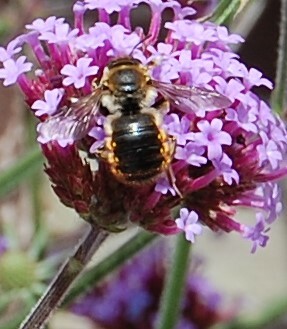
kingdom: Animalia
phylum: Arthropoda
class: Insecta
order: Hymenoptera
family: Megachilidae
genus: Anthidium
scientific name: Anthidium manicatum
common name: Wool carder bee
